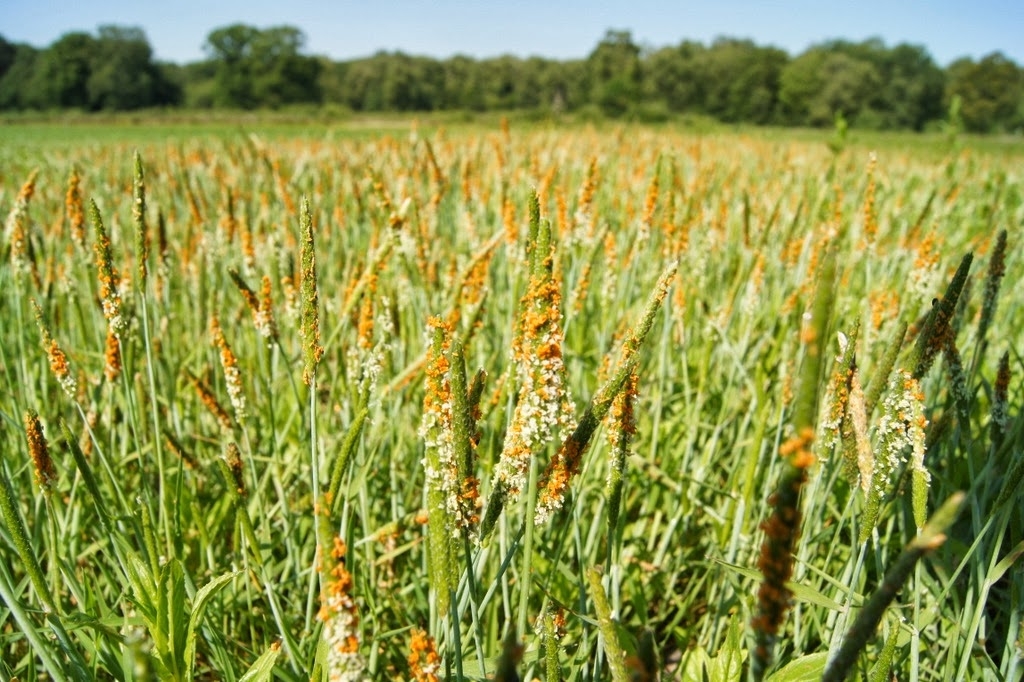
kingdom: Plantae
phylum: Tracheophyta
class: Liliopsida
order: Poales
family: Poaceae
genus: Alopecurus
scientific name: Alopecurus aequalis
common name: Orange foxtail
